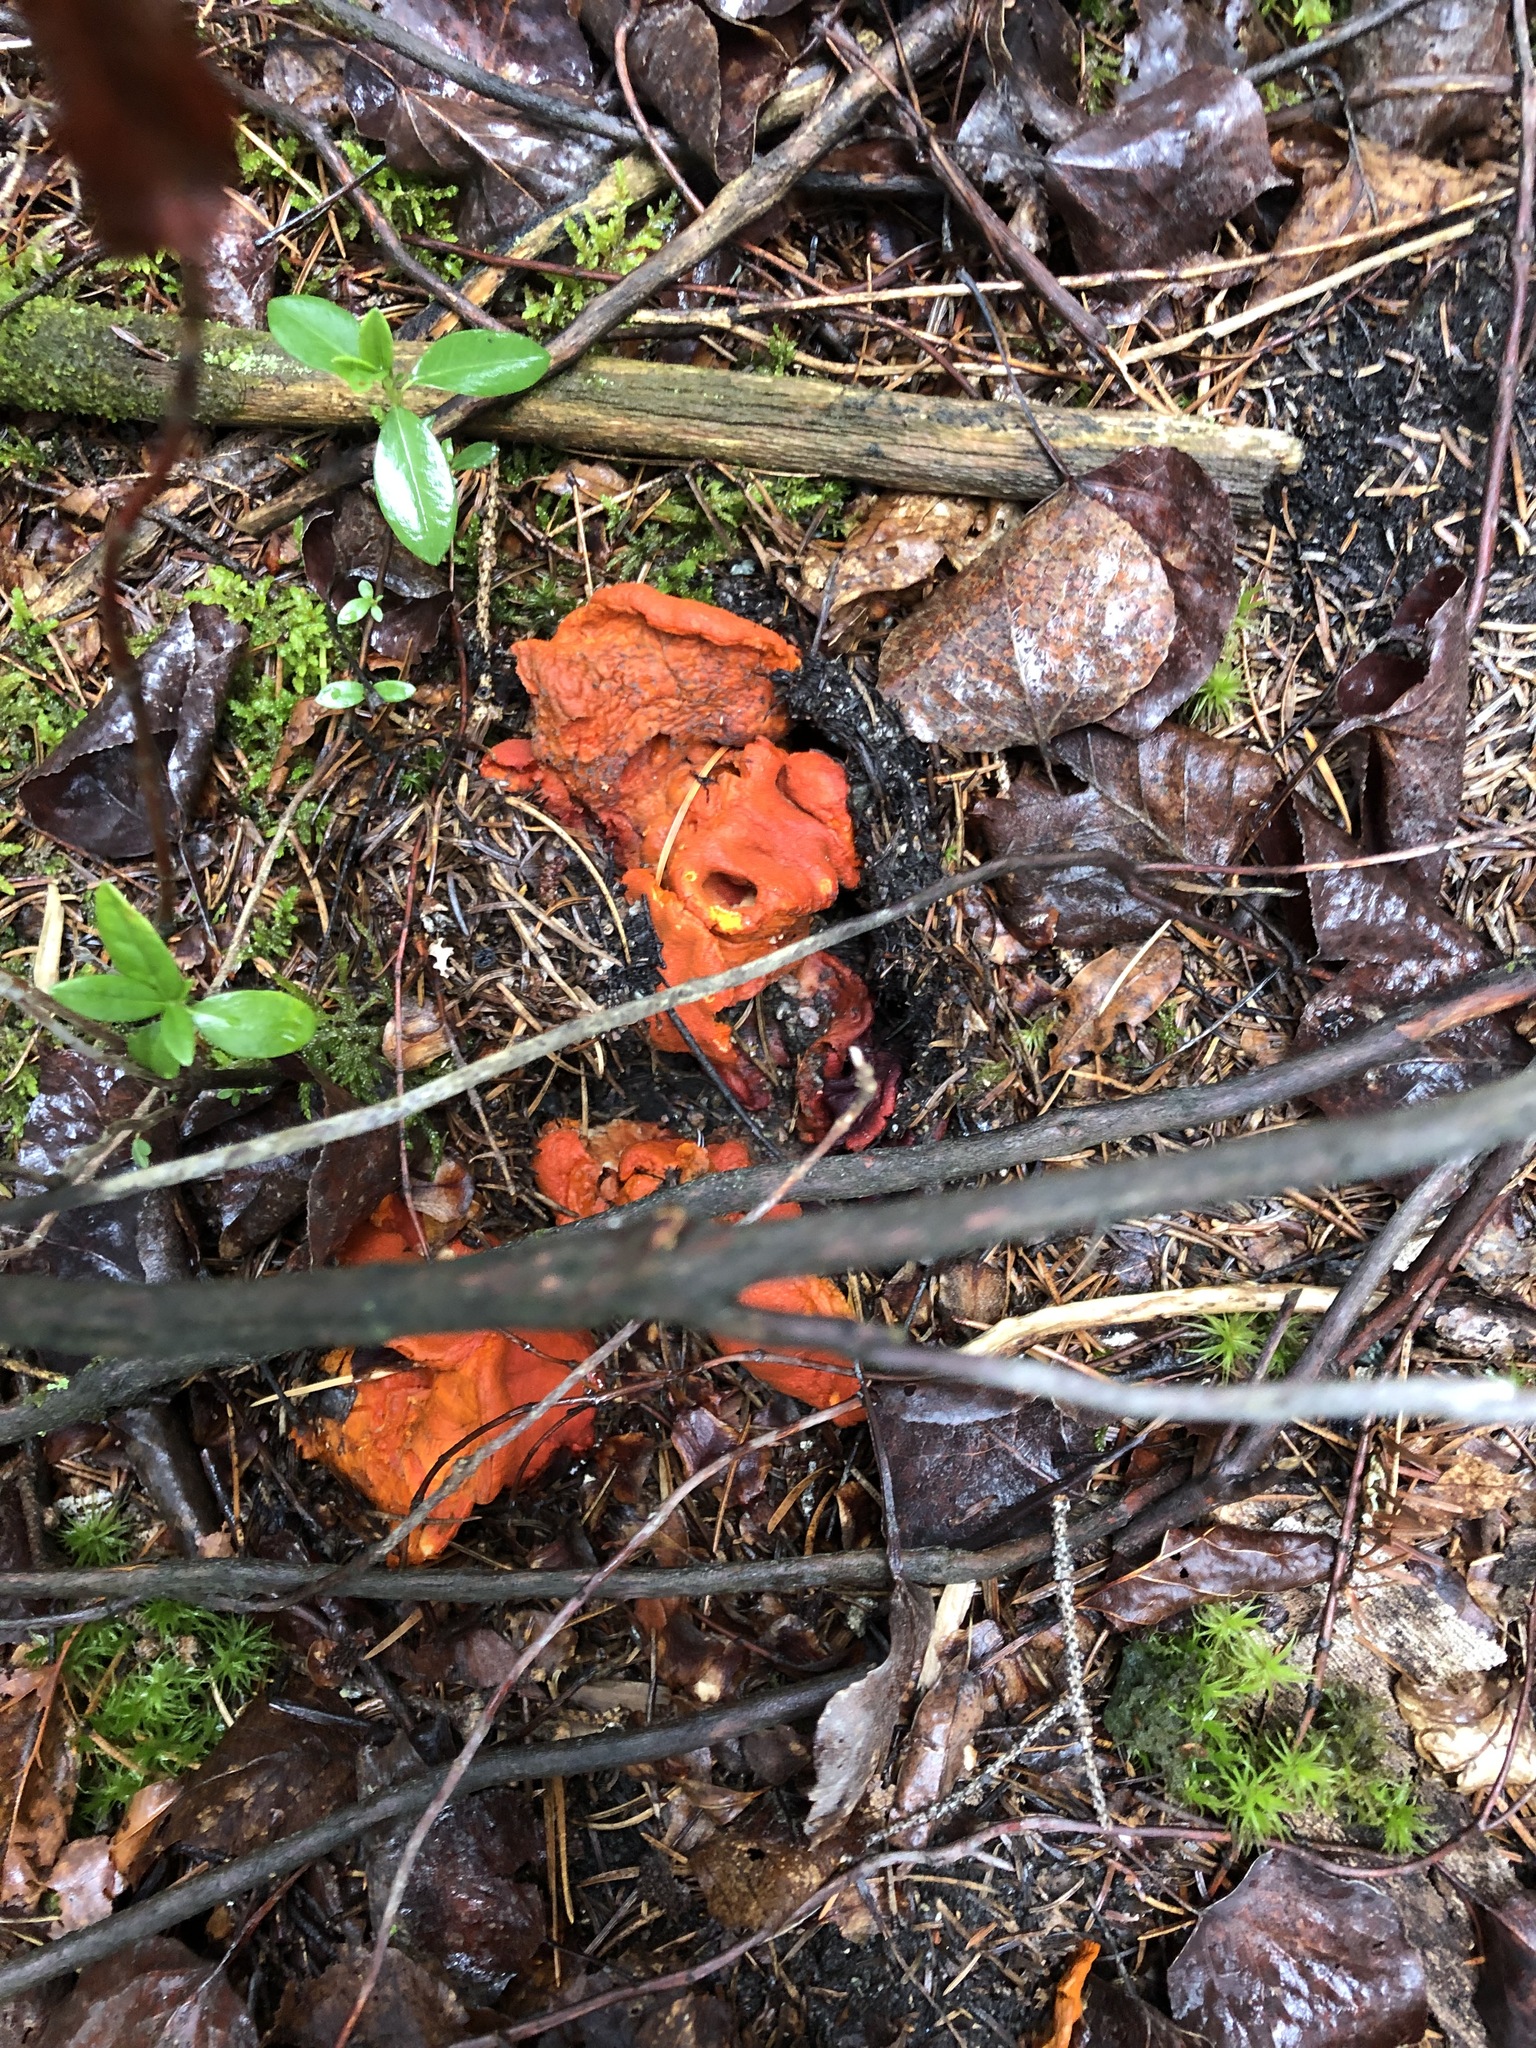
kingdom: Fungi
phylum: Ascomycota
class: Sordariomycetes
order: Hypocreales
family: Hypocreaceae
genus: Hypomyces
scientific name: Hypomyces lactifluorum
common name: Lobster mushroom
